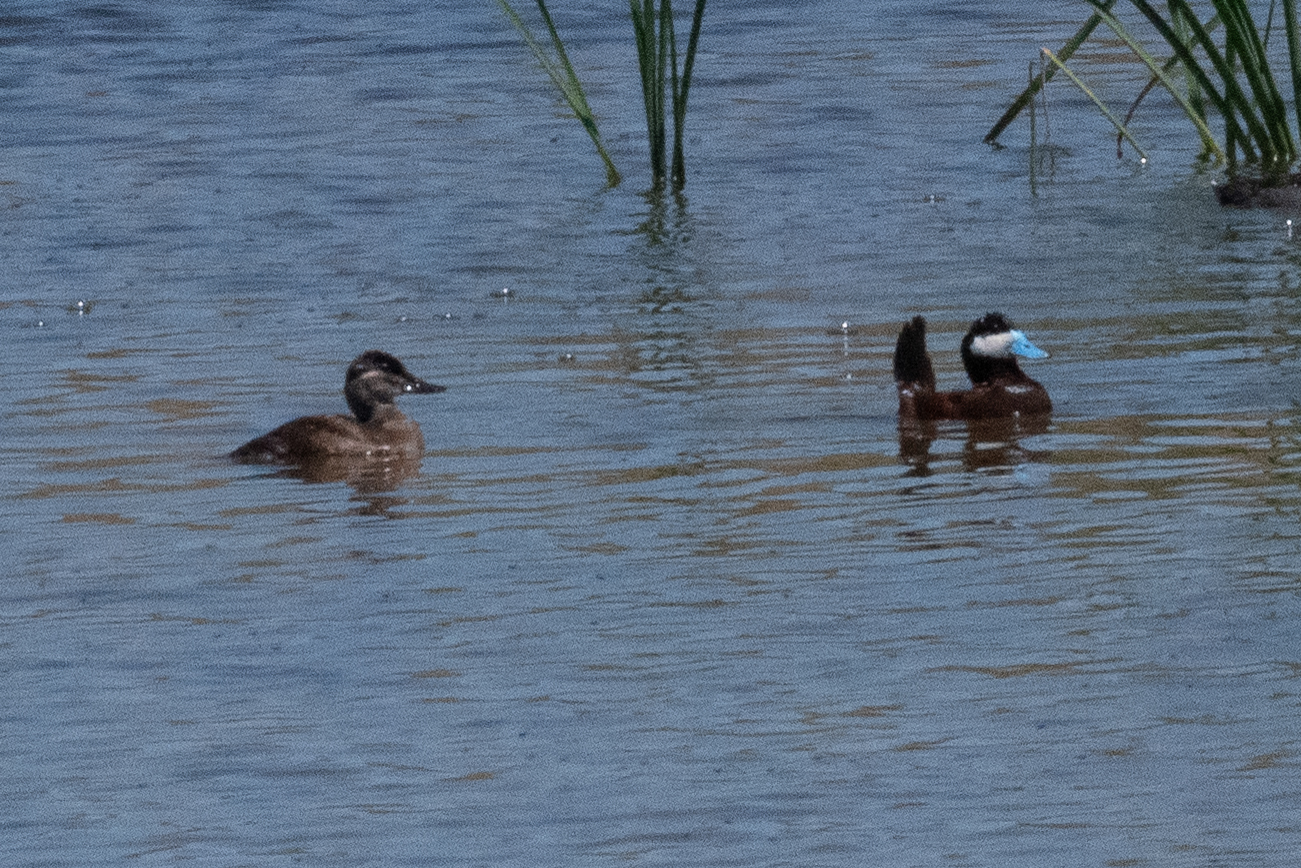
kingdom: Animalia
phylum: Chordata
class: Aves
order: Anseriformes
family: Anatidae
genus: Oxyura
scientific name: Oxyura jamaicensis
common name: Ruddy duck
